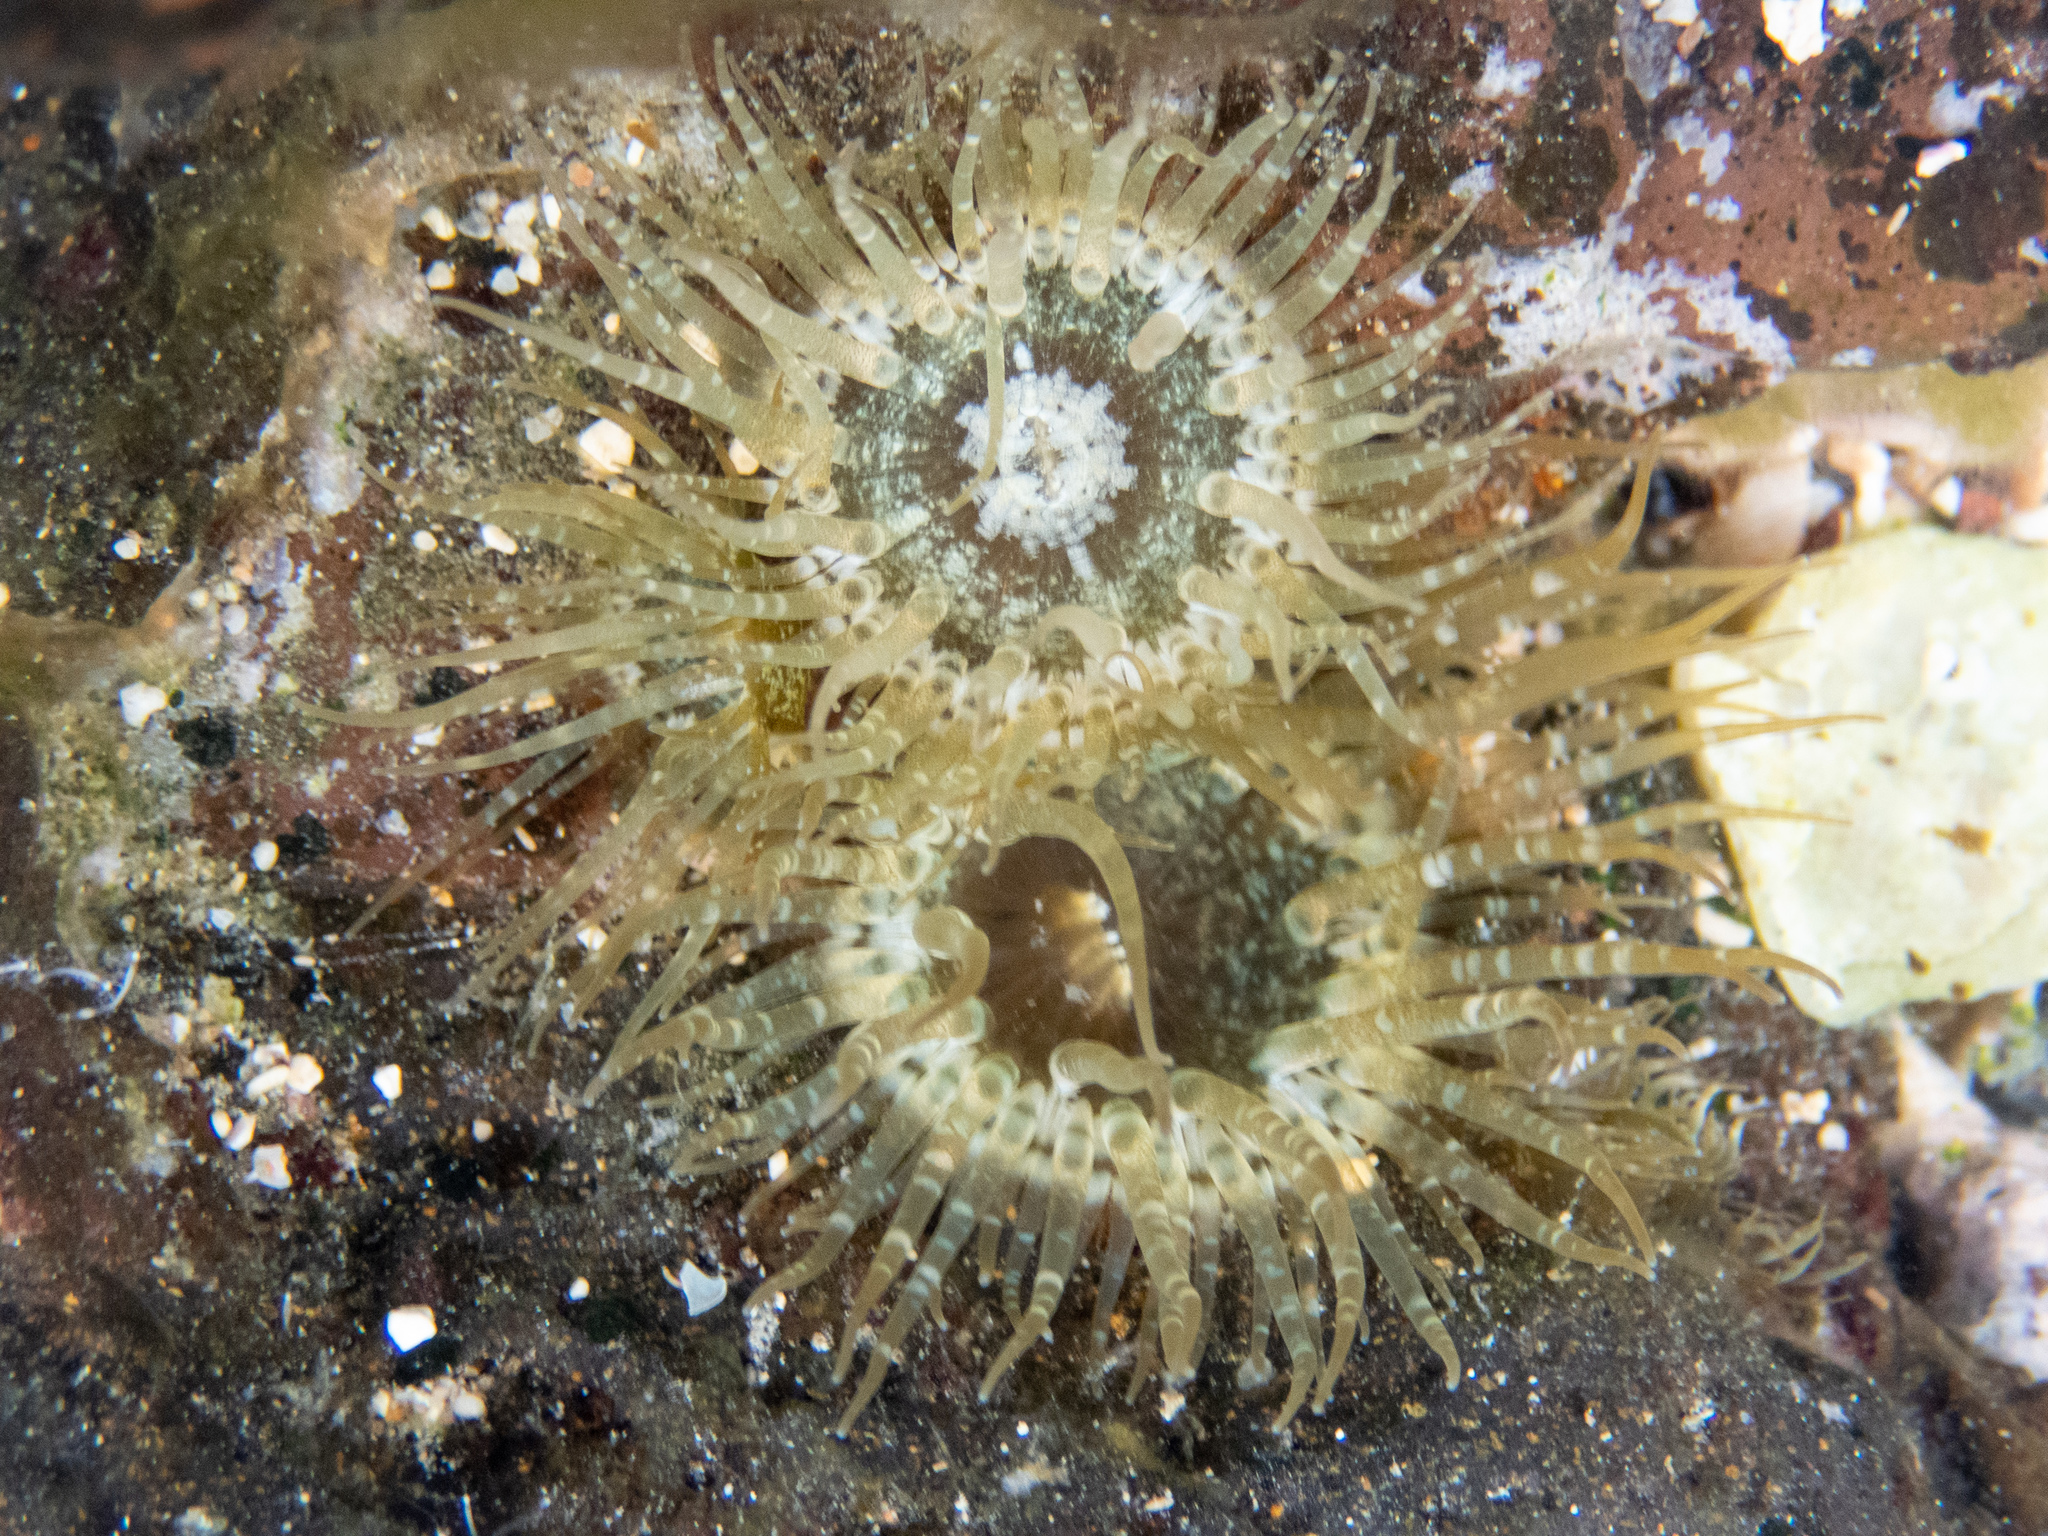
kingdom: Animalia
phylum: Cnidaria
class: Anthozoa
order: Actiniaria
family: Aiptasiidae
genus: Exaiptasia
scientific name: Exaiptasia diaphana
